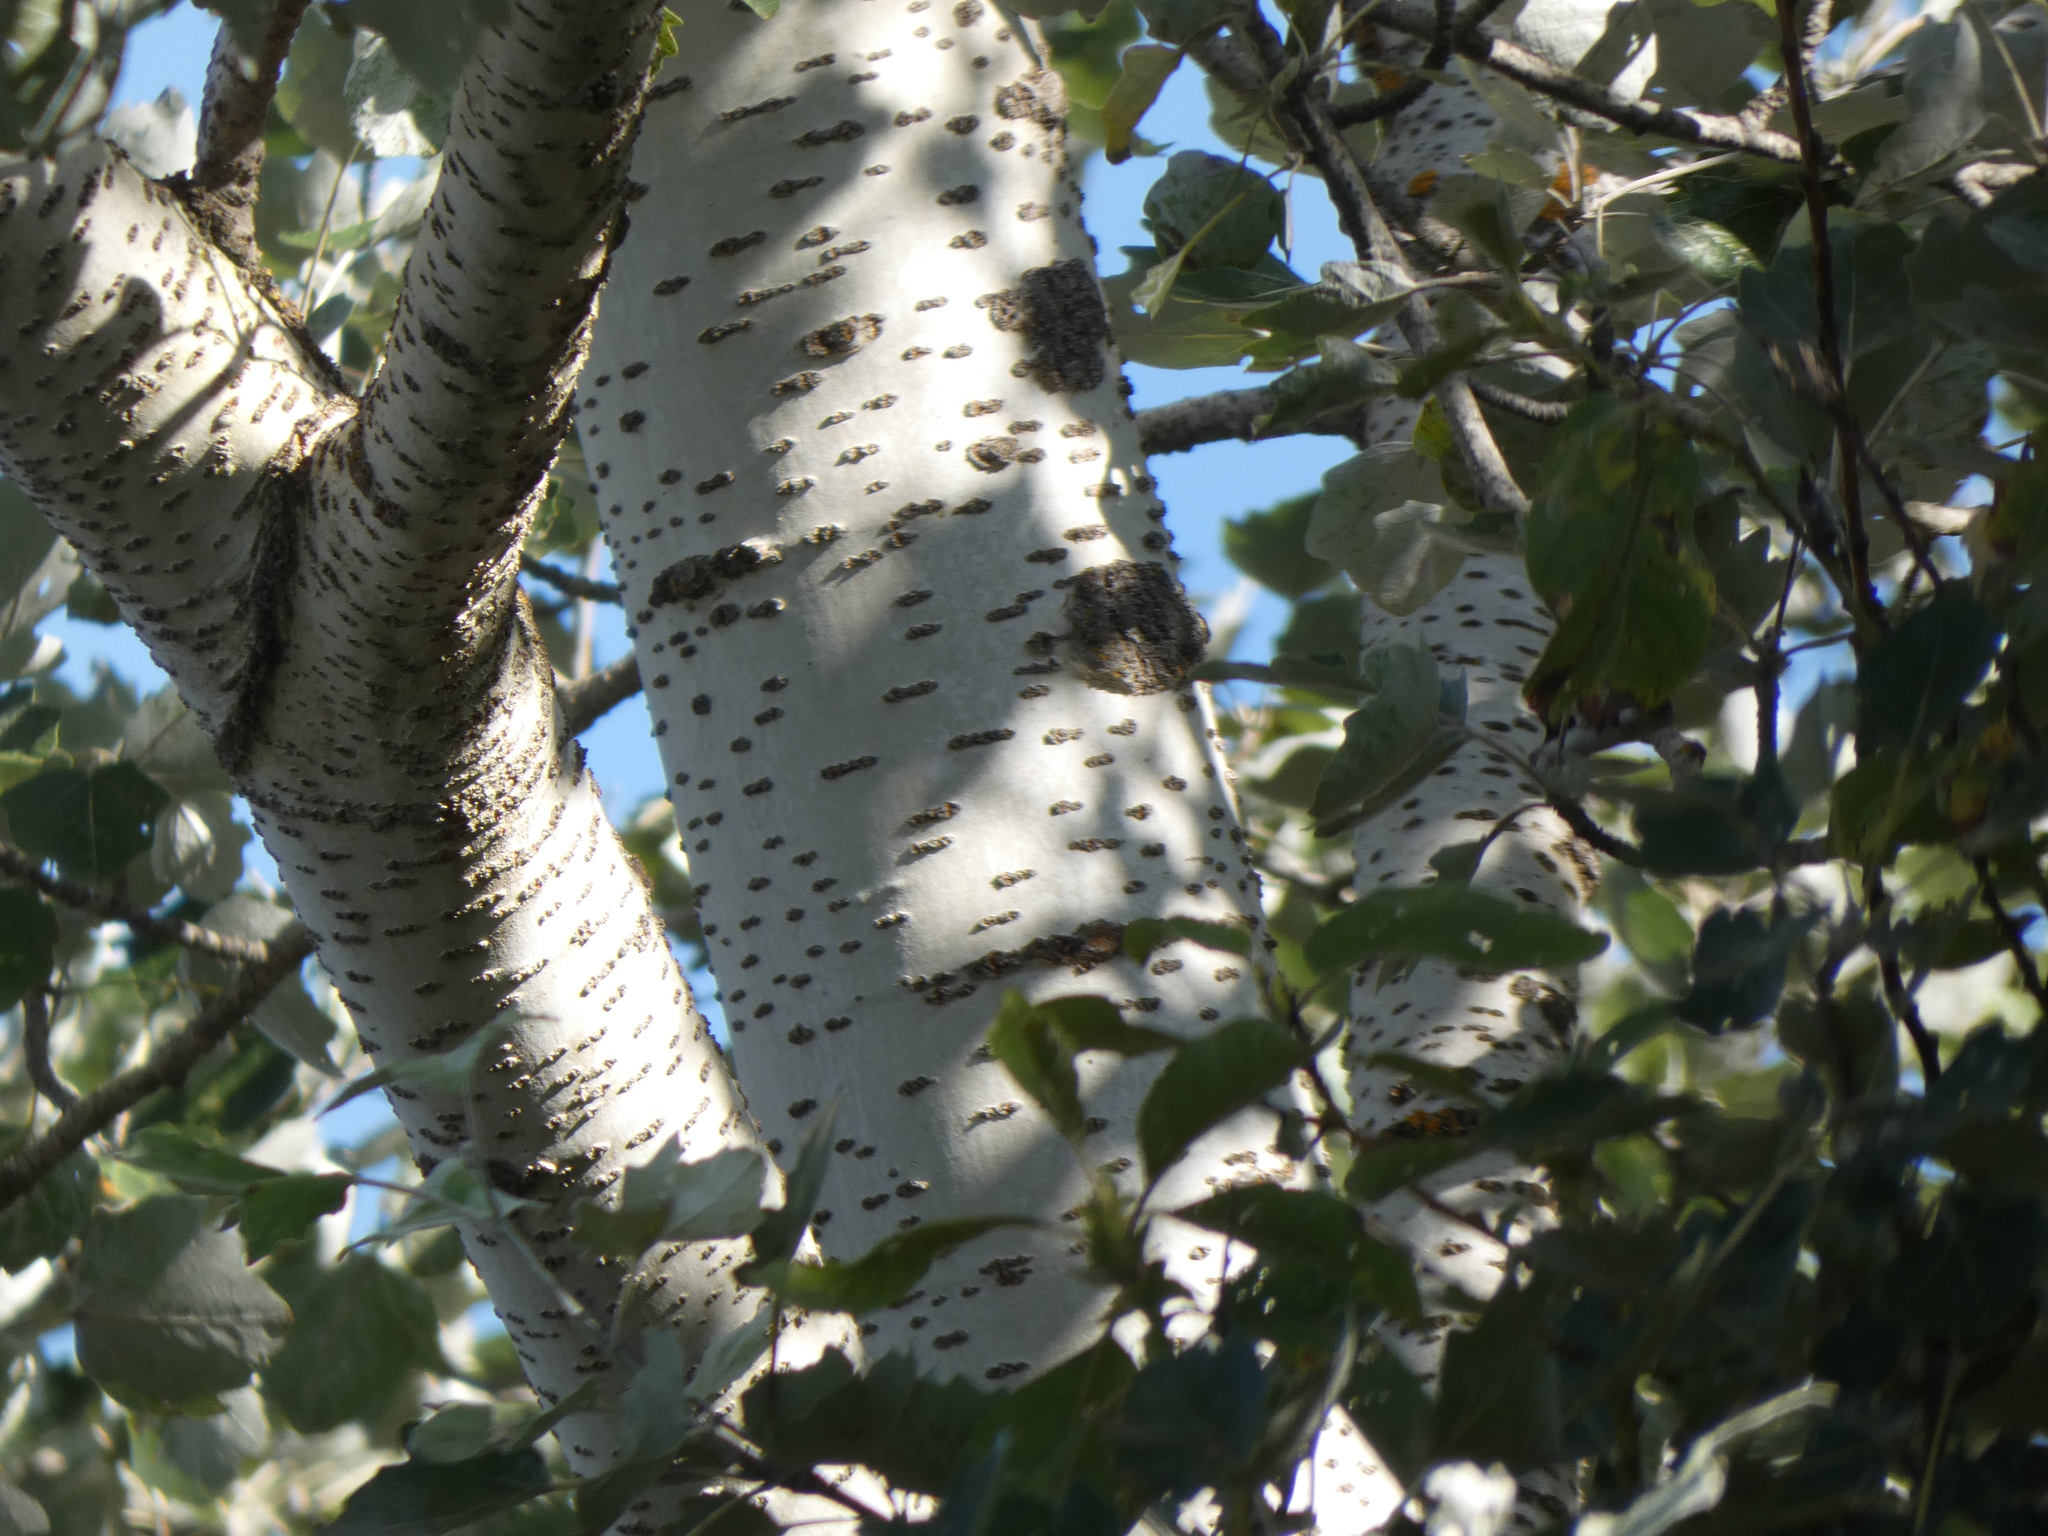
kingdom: Plantae
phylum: Tracheophyta
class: Magnoliopsida
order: Malpighiales
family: Salicaceae
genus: Populus
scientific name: Populus alba
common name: White poplar
